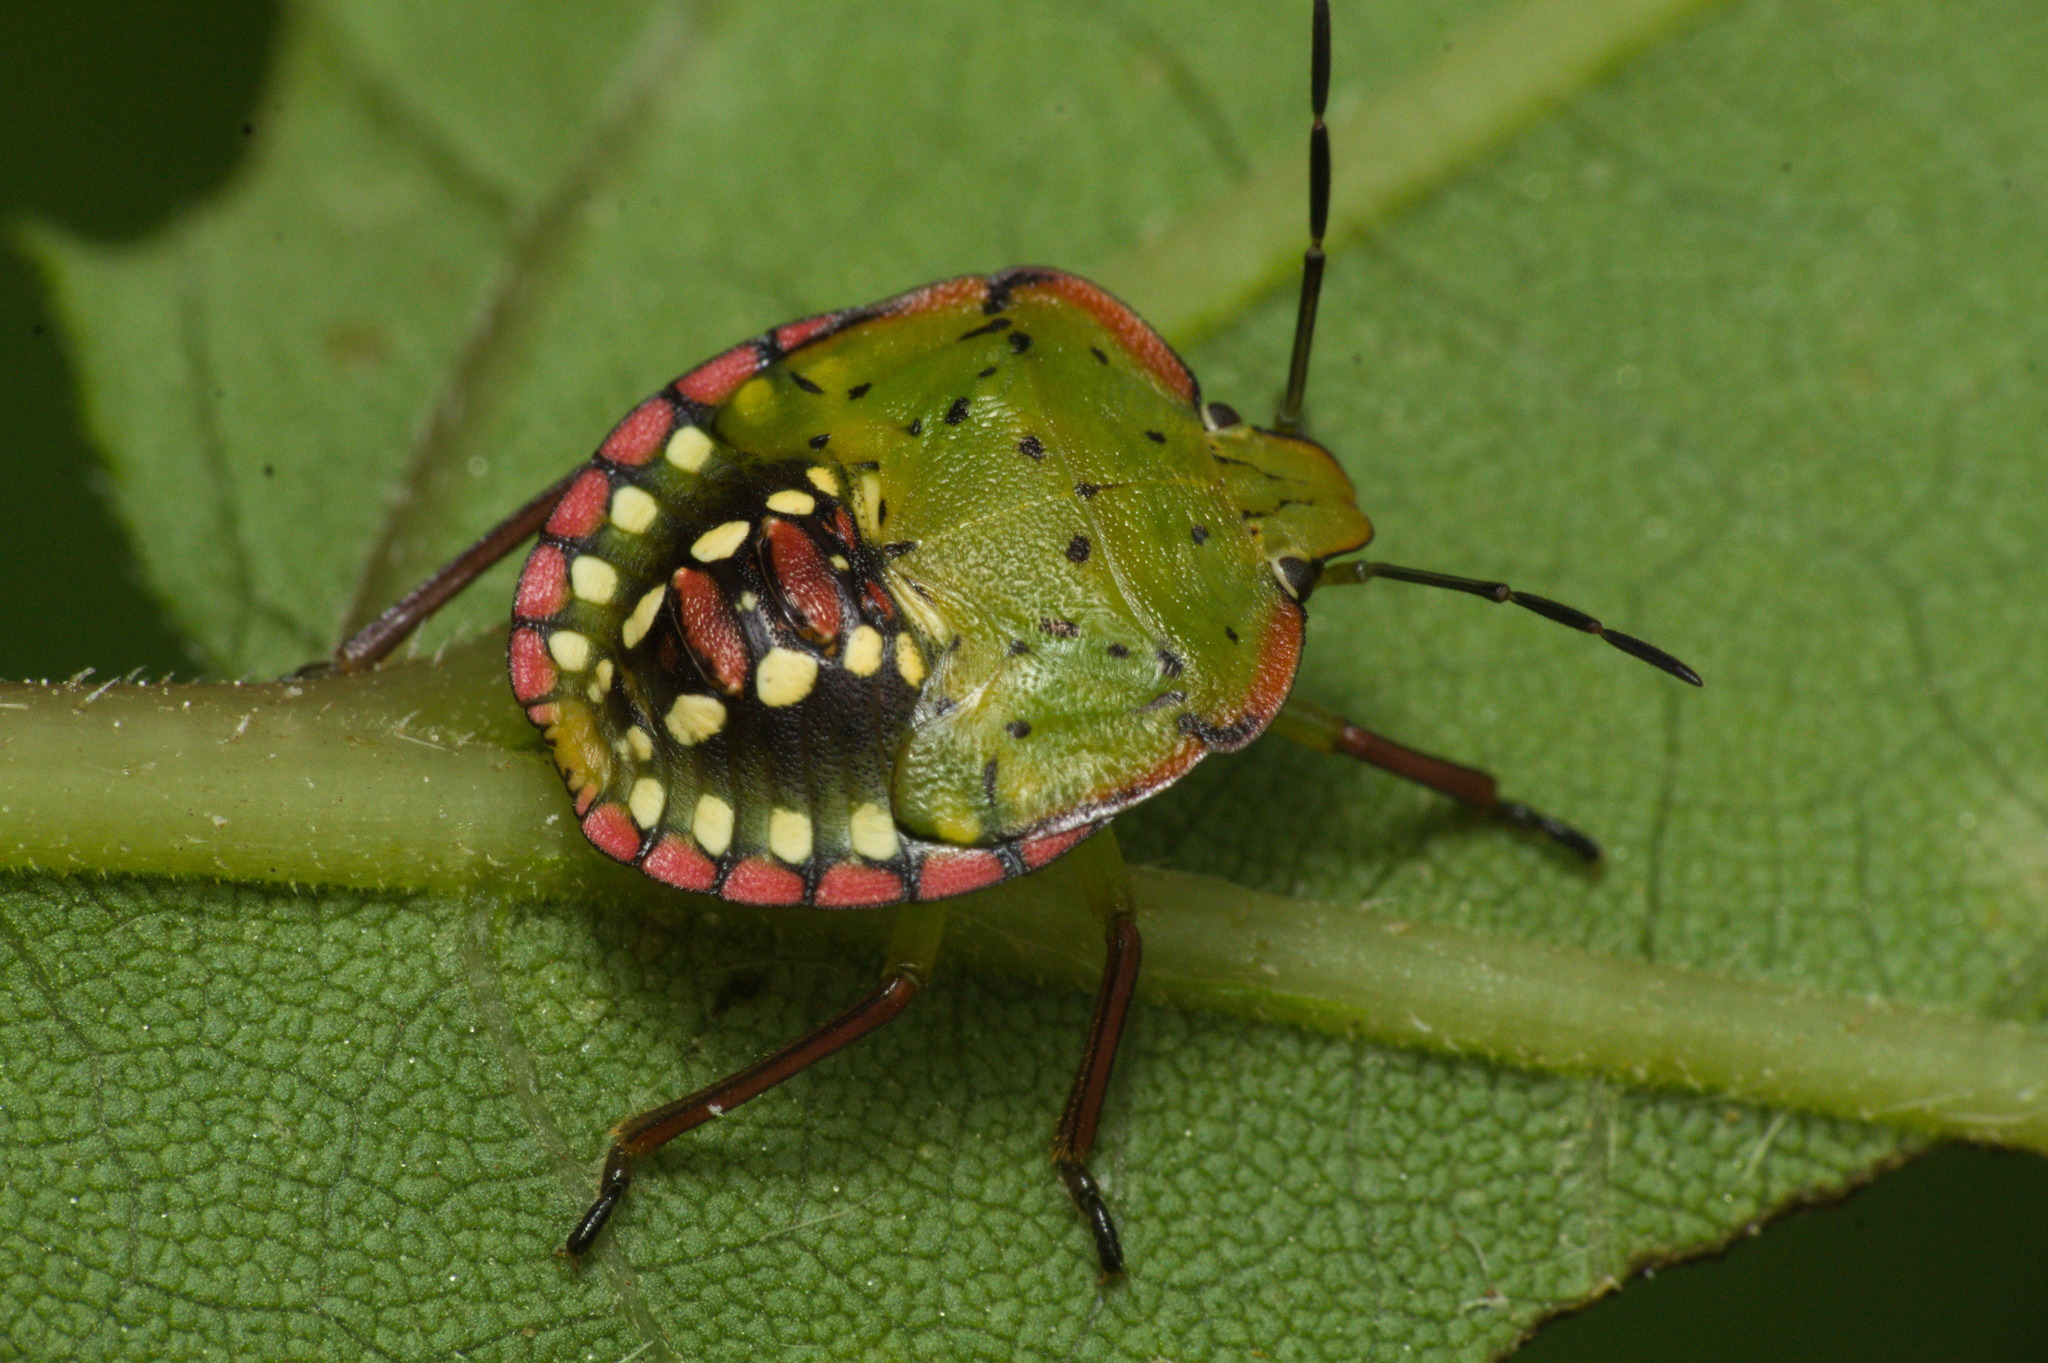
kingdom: Animalia
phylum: Arthropoda
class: Insecta
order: Hemiptera
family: Pentatomidae
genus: Nezara
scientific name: Nezara viridula
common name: Southern green stink bug
